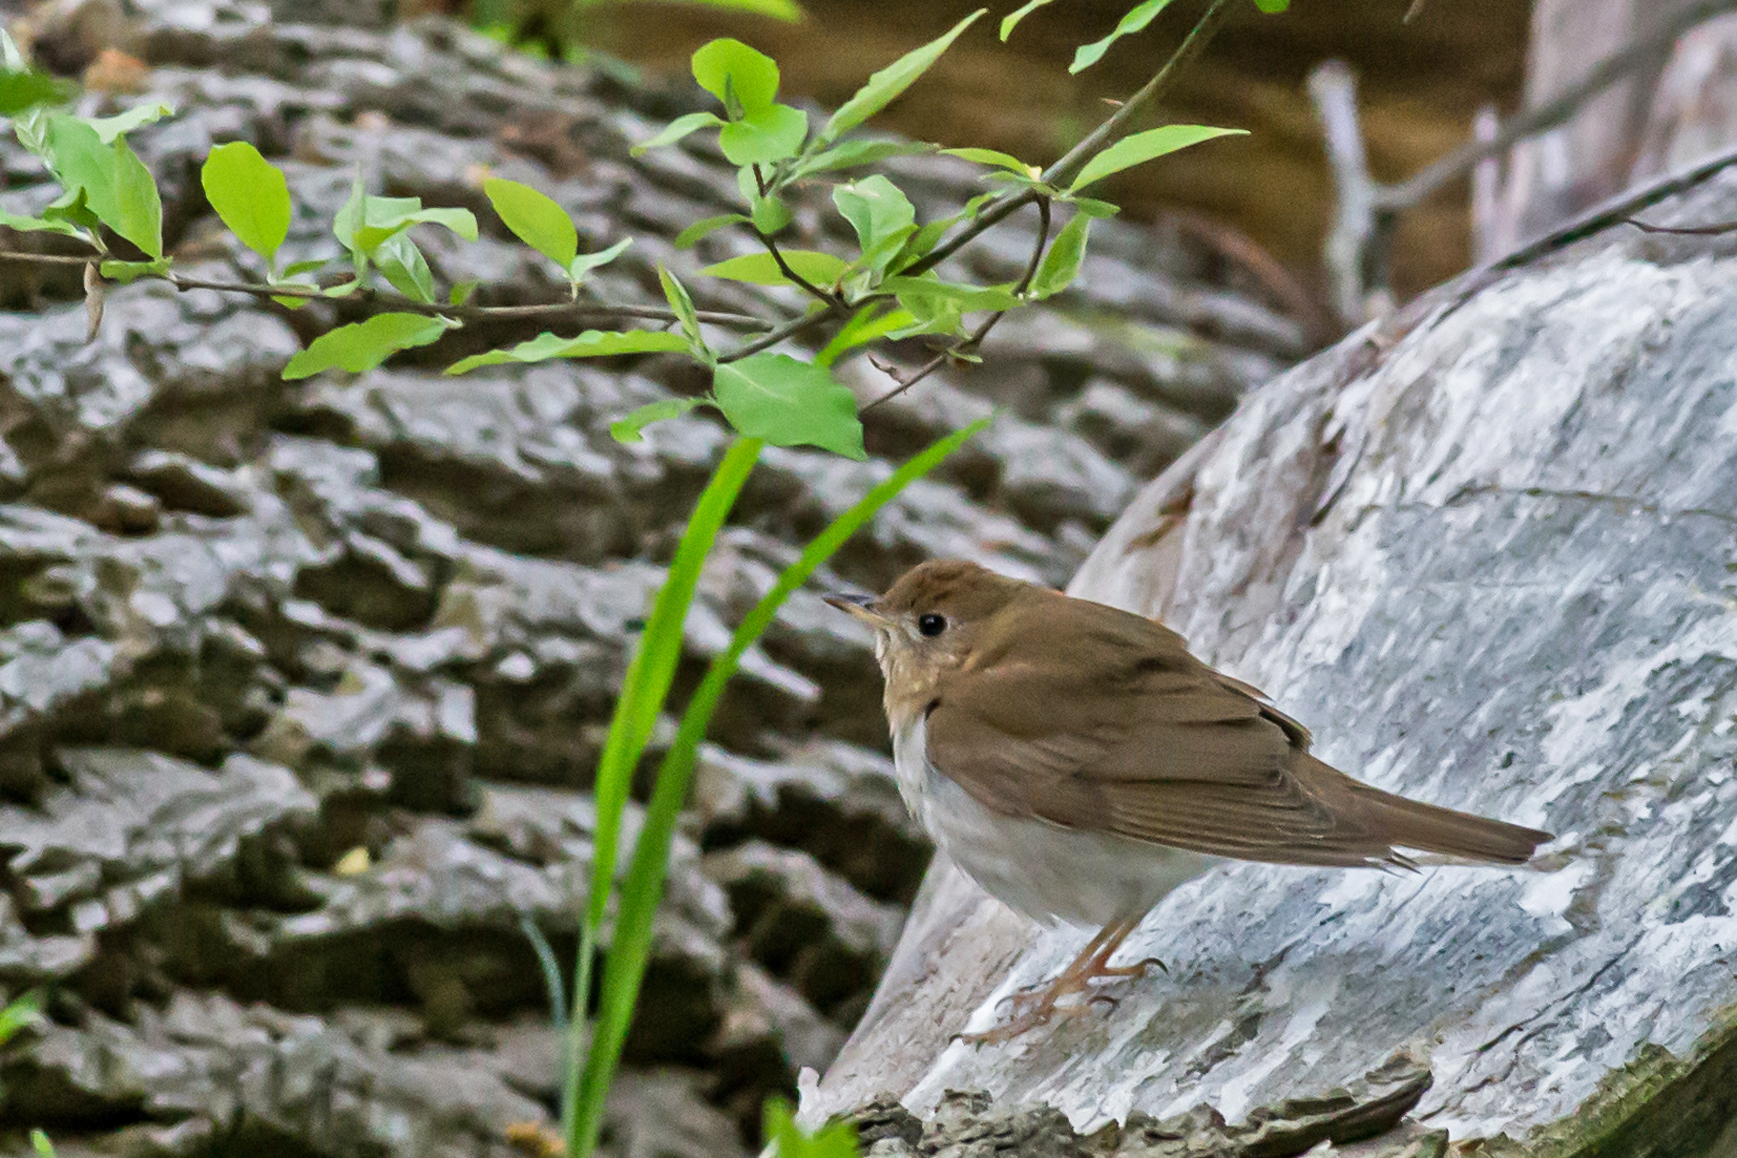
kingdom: Animalia
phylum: Chordata
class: Aves
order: Passeriformes
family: Turdidae
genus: Catharus
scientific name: Catharus fuscescens
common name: Veery
